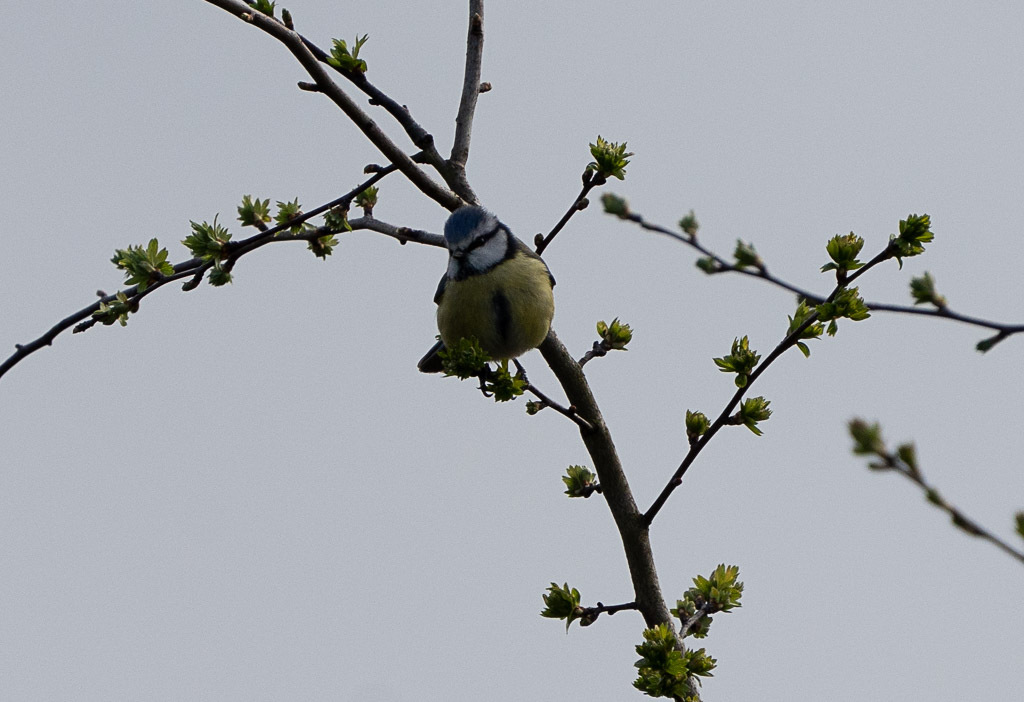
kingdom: Animalia
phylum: Chordata
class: Aves
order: Passeriformes
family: Paridae
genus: Cyanistes
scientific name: Cyanistes caeruleus
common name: Eurasian blue tit
